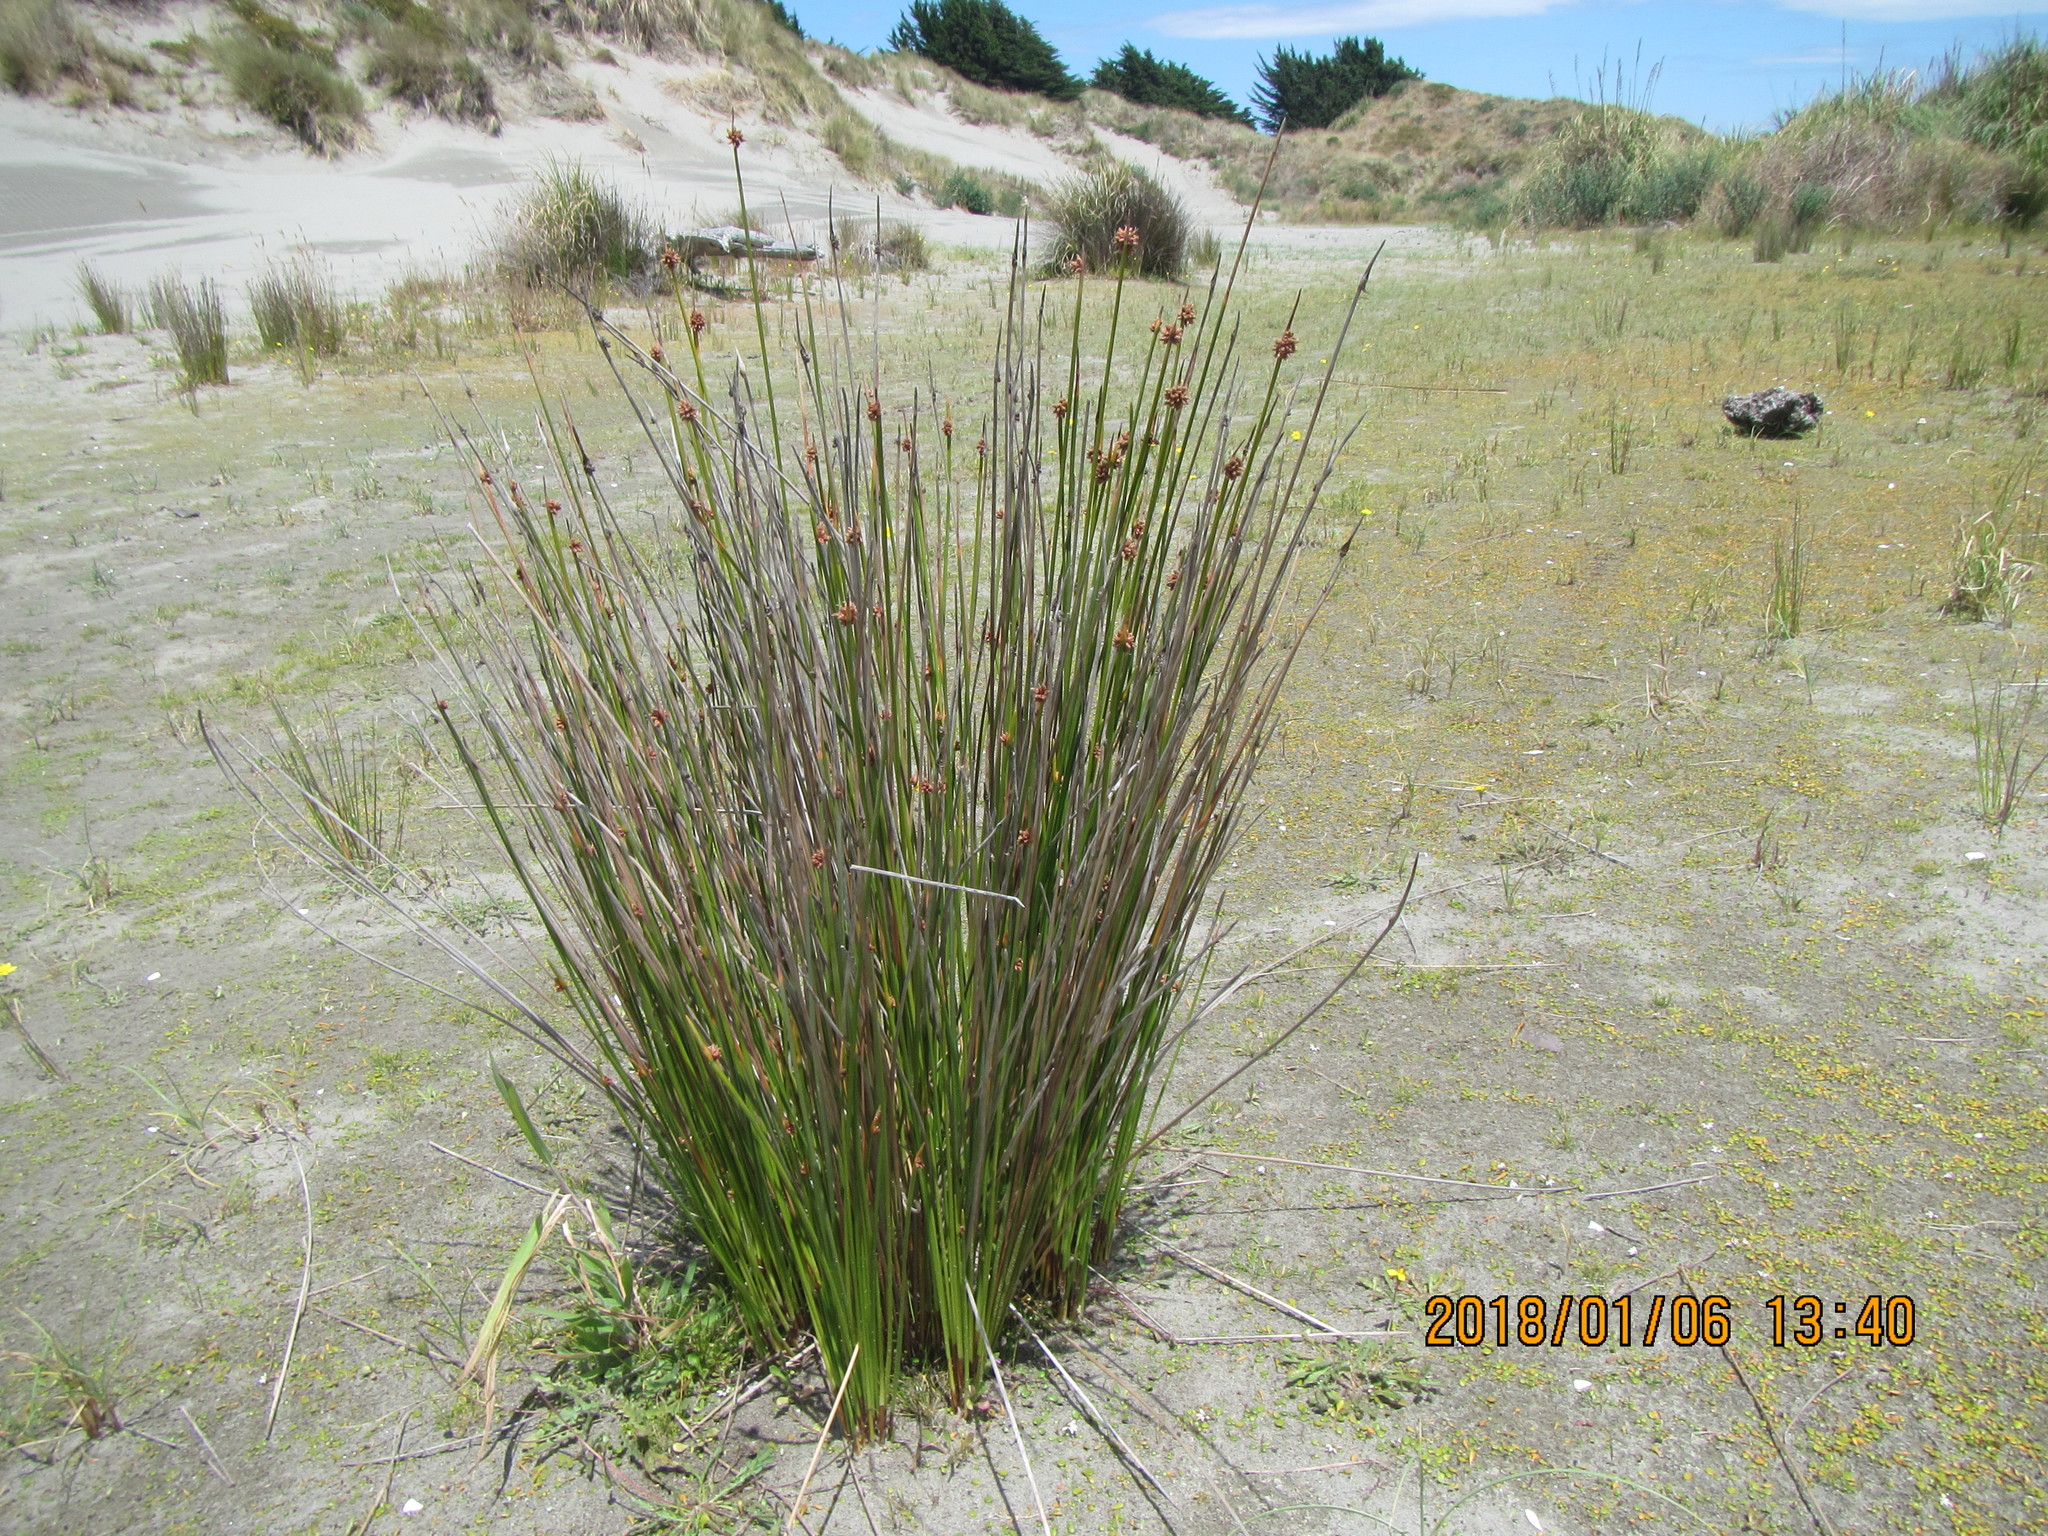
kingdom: Plantae
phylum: Tracheophyta
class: Liliopsida
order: Poales
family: Cyperaceae
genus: Ficinia
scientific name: Ficinia nodosa
